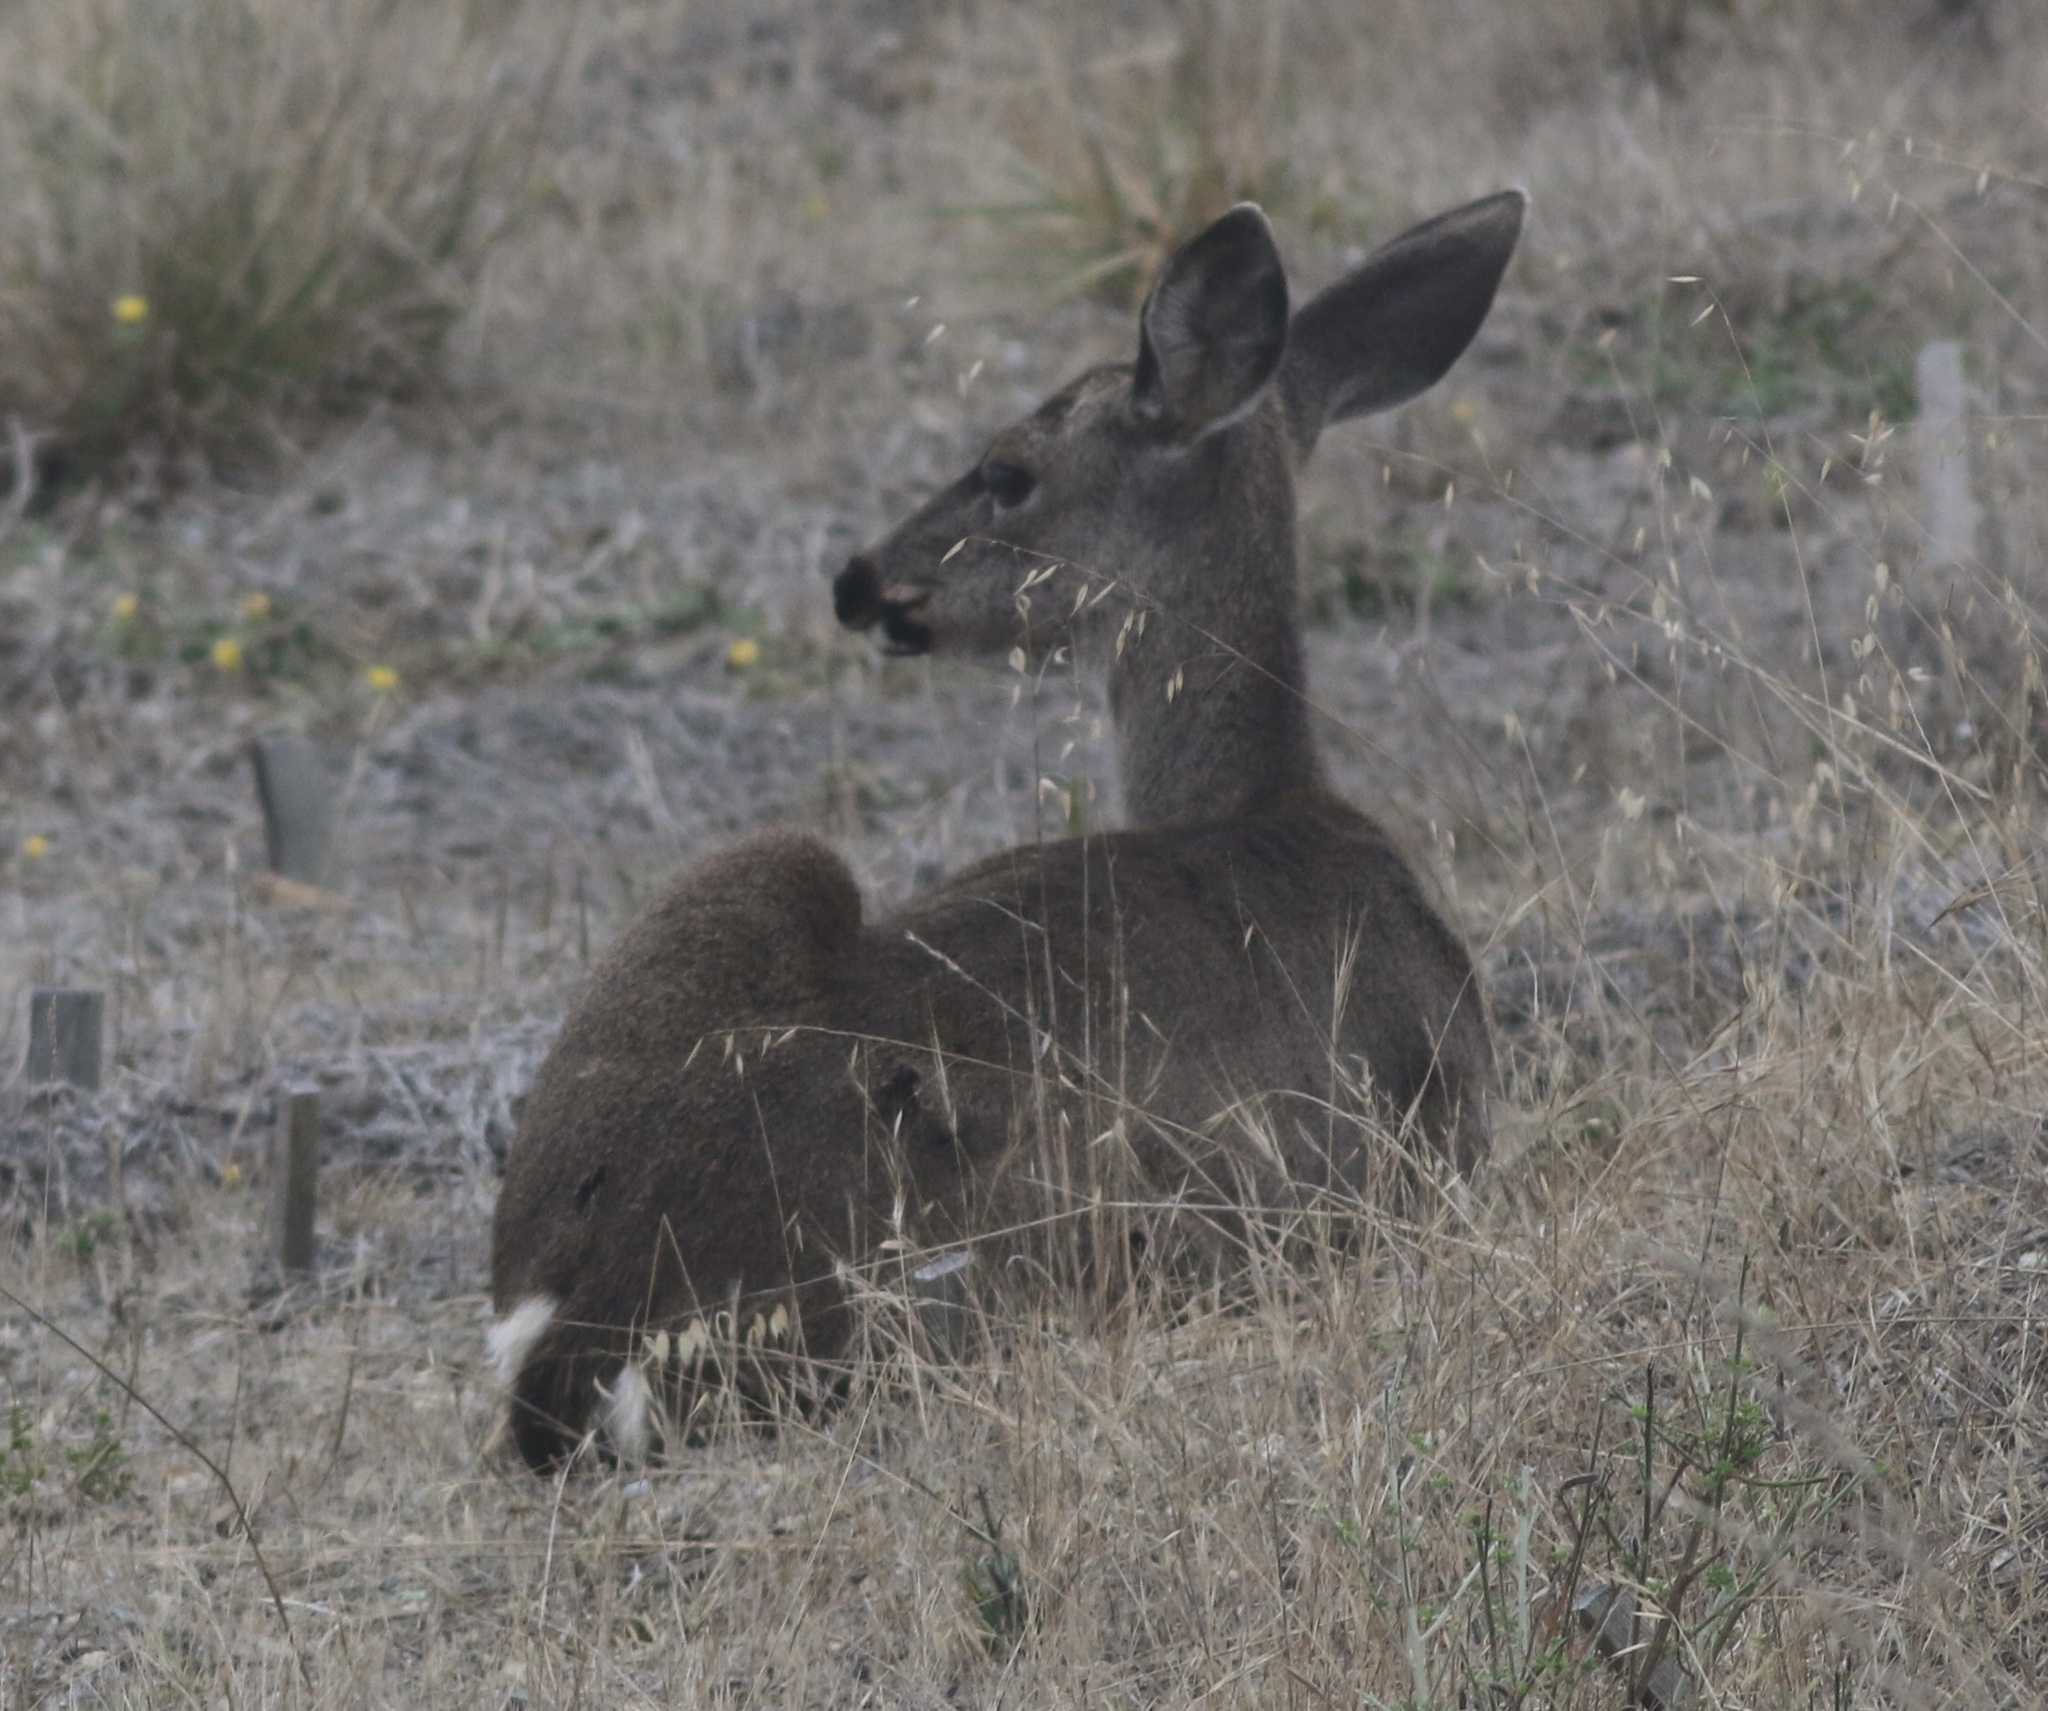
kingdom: Animalia
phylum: Chordata
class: Mammalia
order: Artiodactyla
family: Cervidae
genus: Odocoileus
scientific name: Odocoileus hemionus
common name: Mule deer
